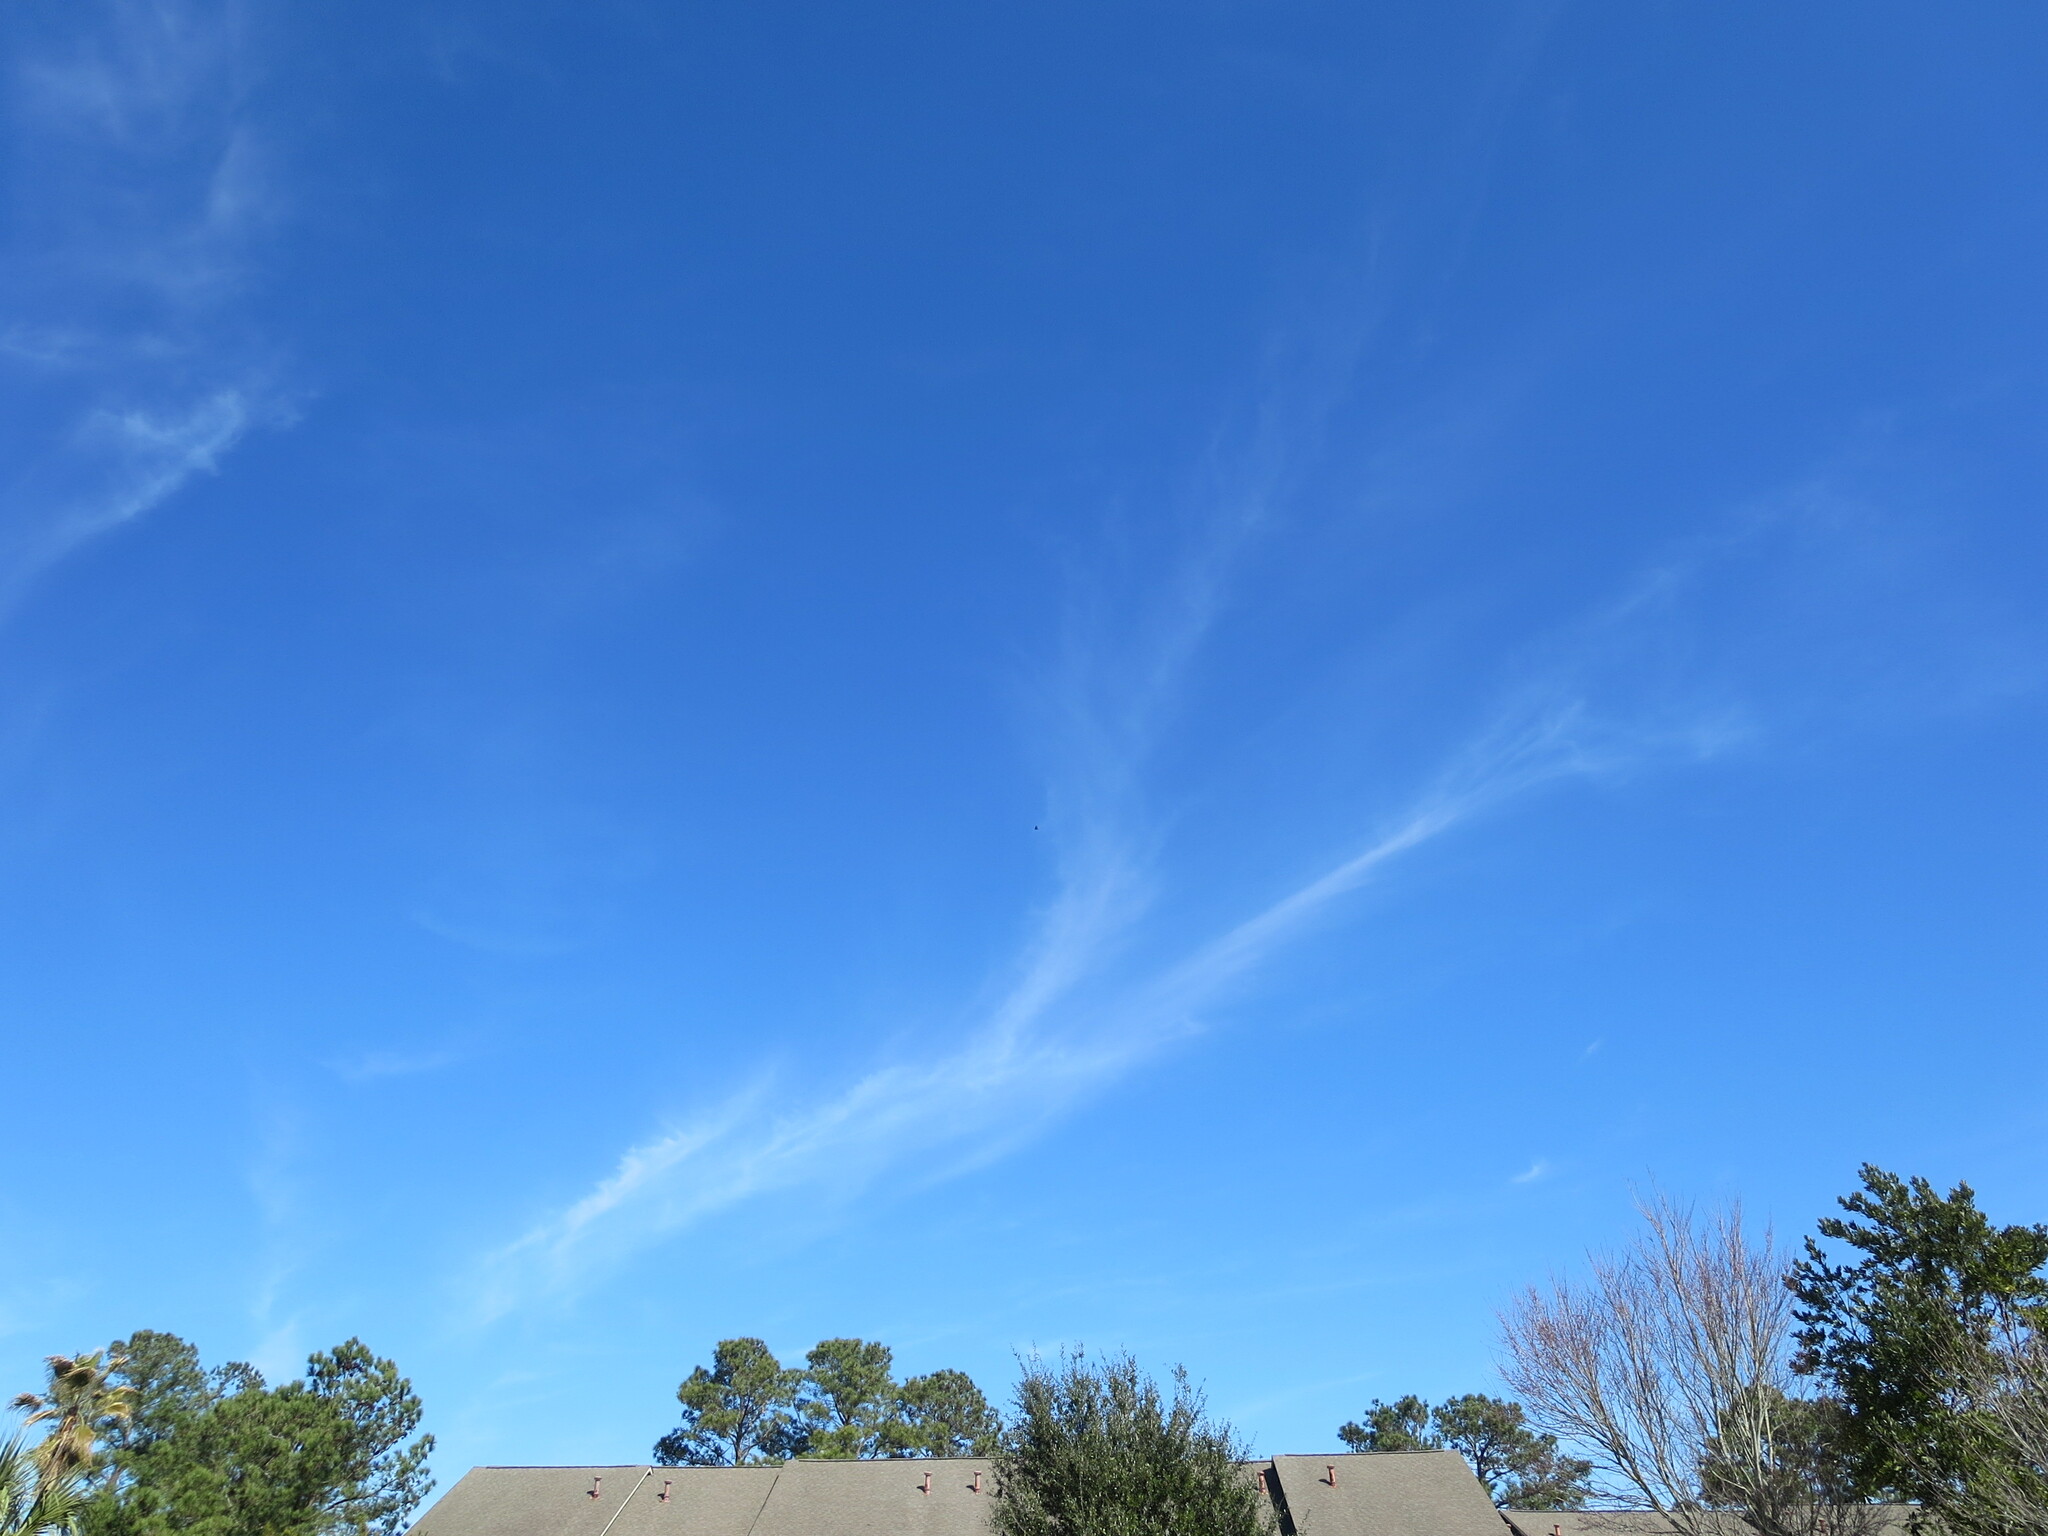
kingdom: Animalia
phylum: Chordata
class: Aves
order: Accipitriformes
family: Cathartidae
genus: Cathartes
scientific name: Cathartes aura
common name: Turkey vulture
